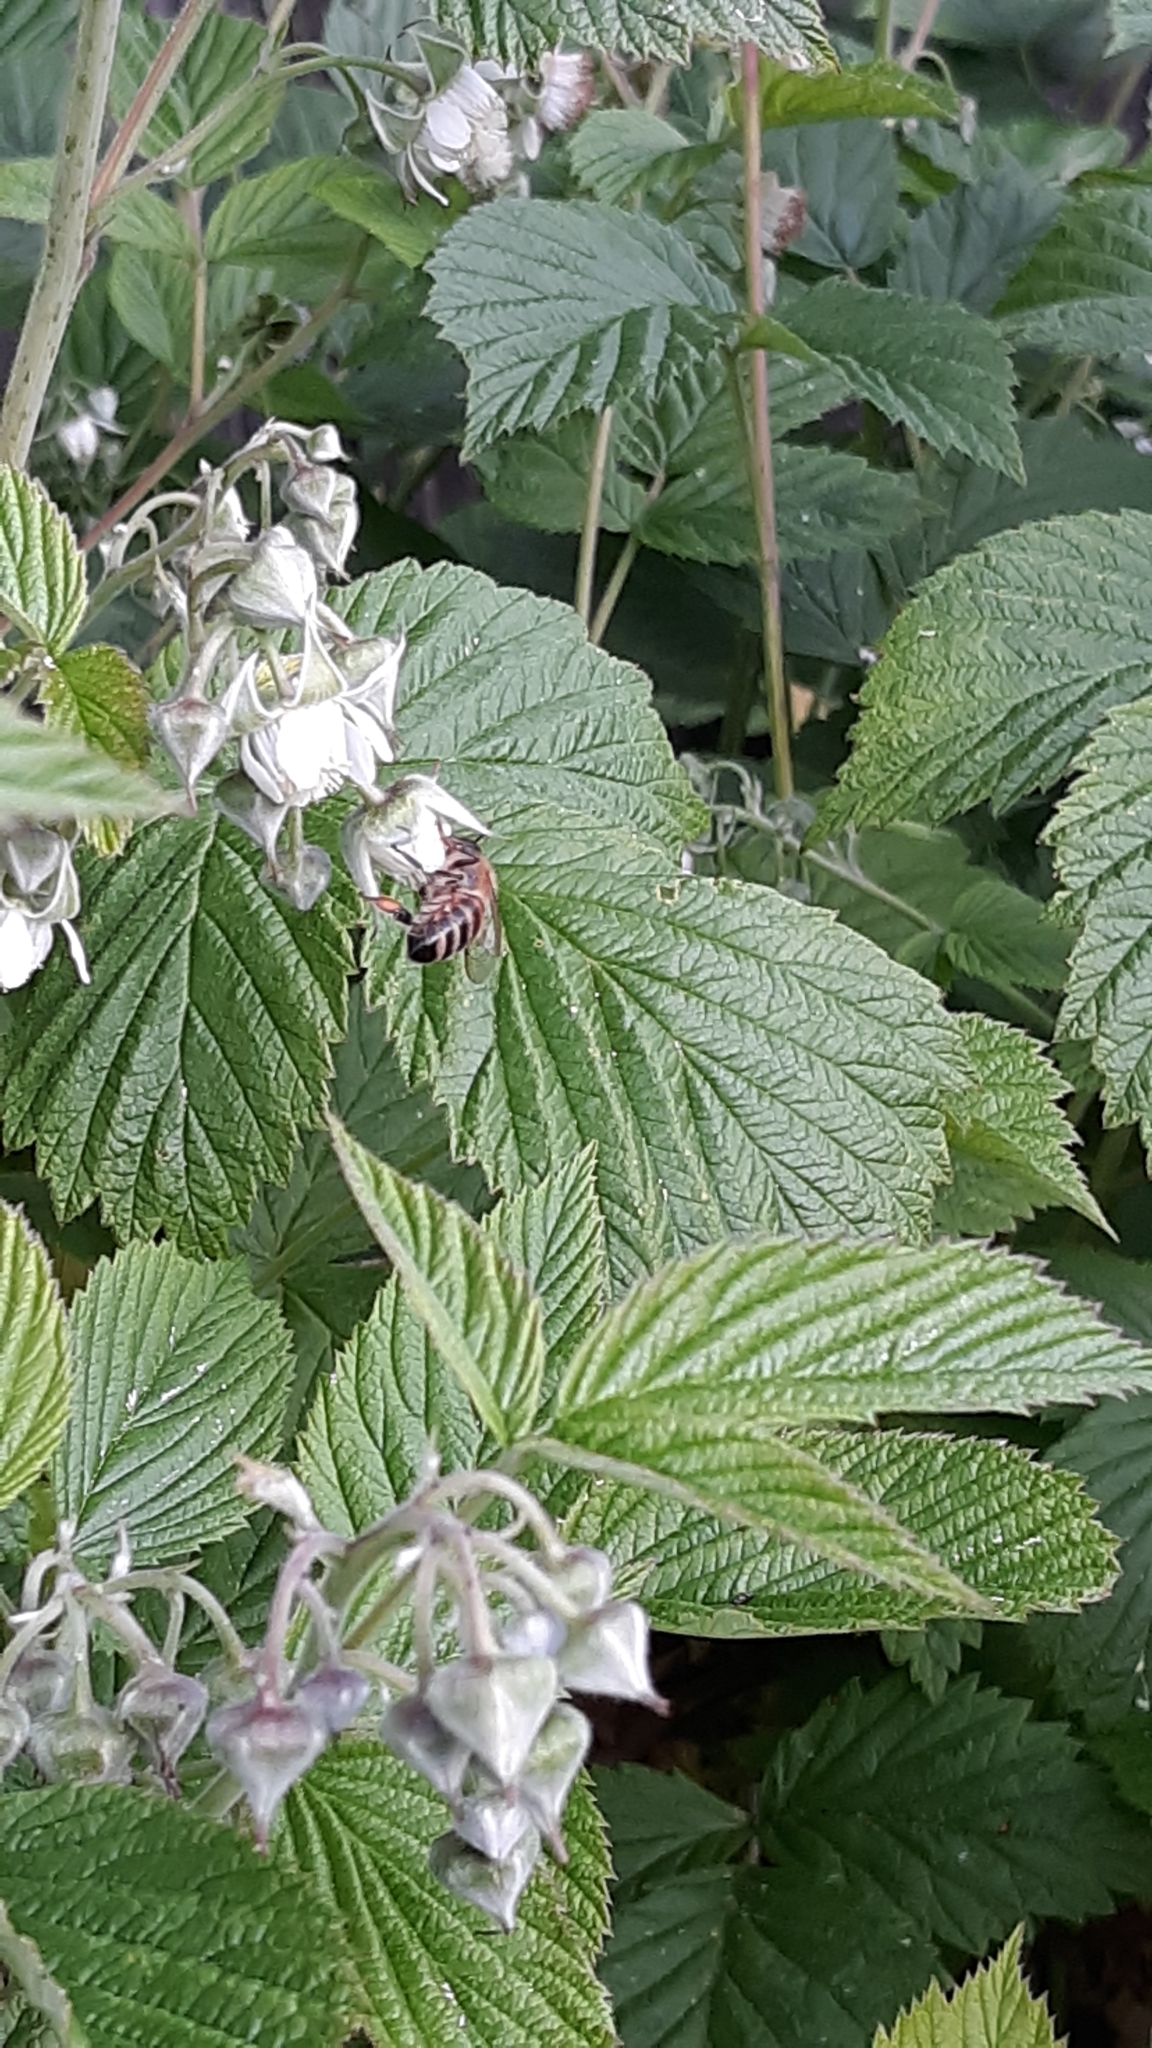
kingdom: Animalia
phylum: Arthropoda
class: Insecta
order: Hymenoptera
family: Apidae
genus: Apis
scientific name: Apis mellifera
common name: Honey bee
